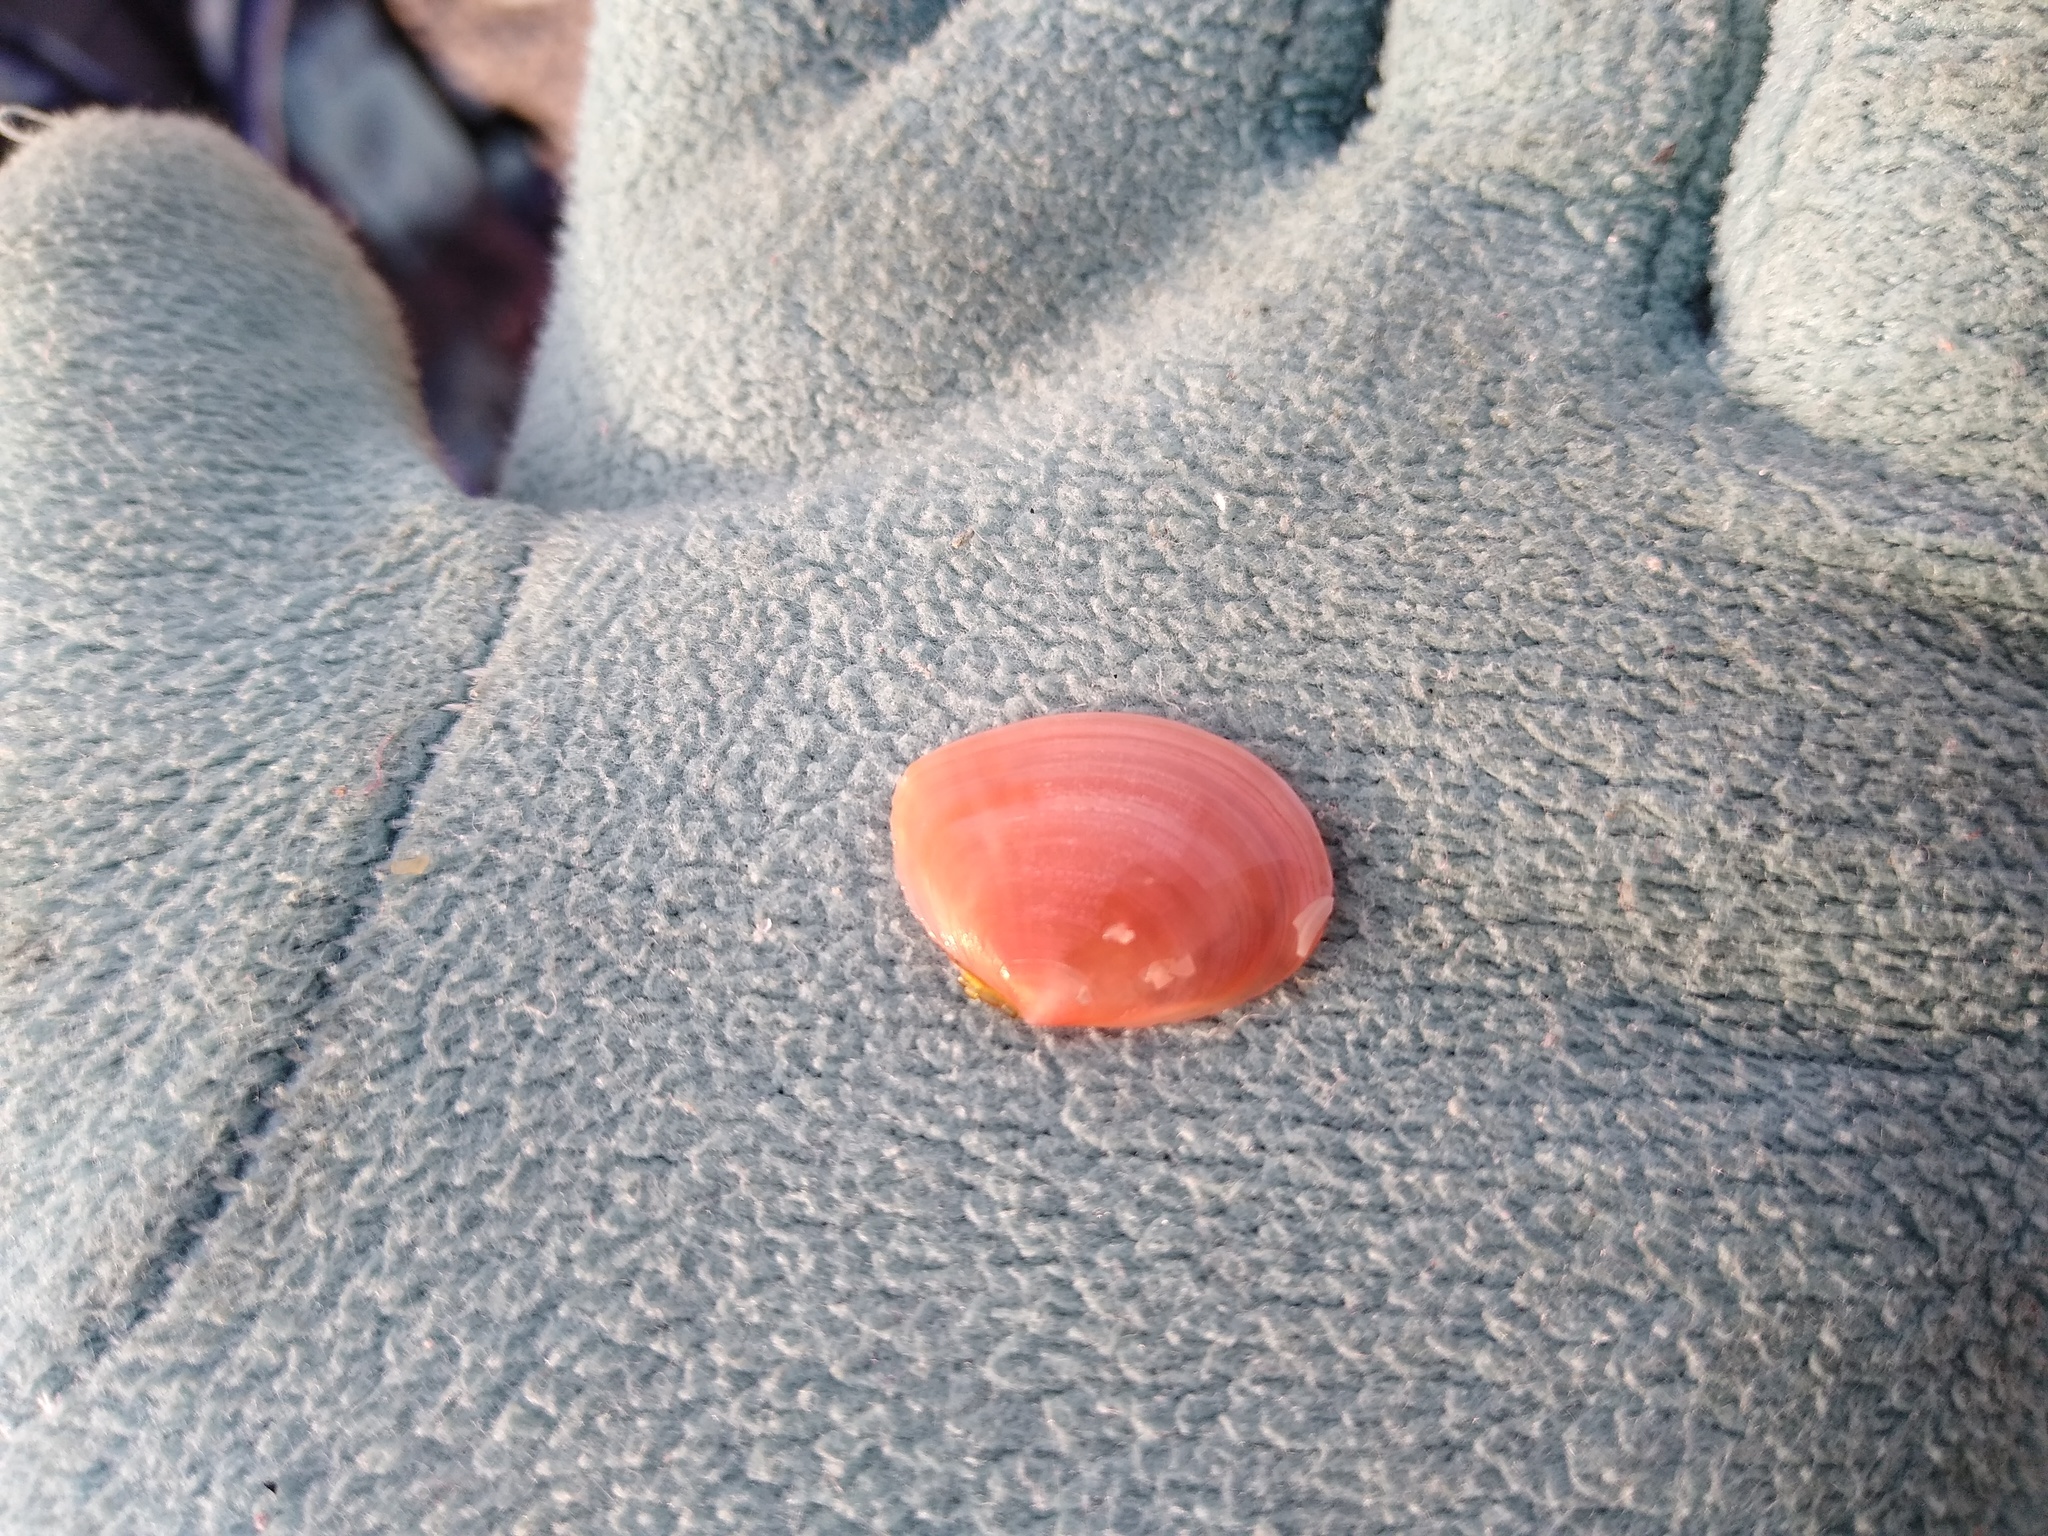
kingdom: Animalia
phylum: Mollusca
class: Bivalvia
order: Cardiida
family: Tellinidae
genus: Macomangulus
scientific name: Macomangulus tenuis
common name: Thin tellin
